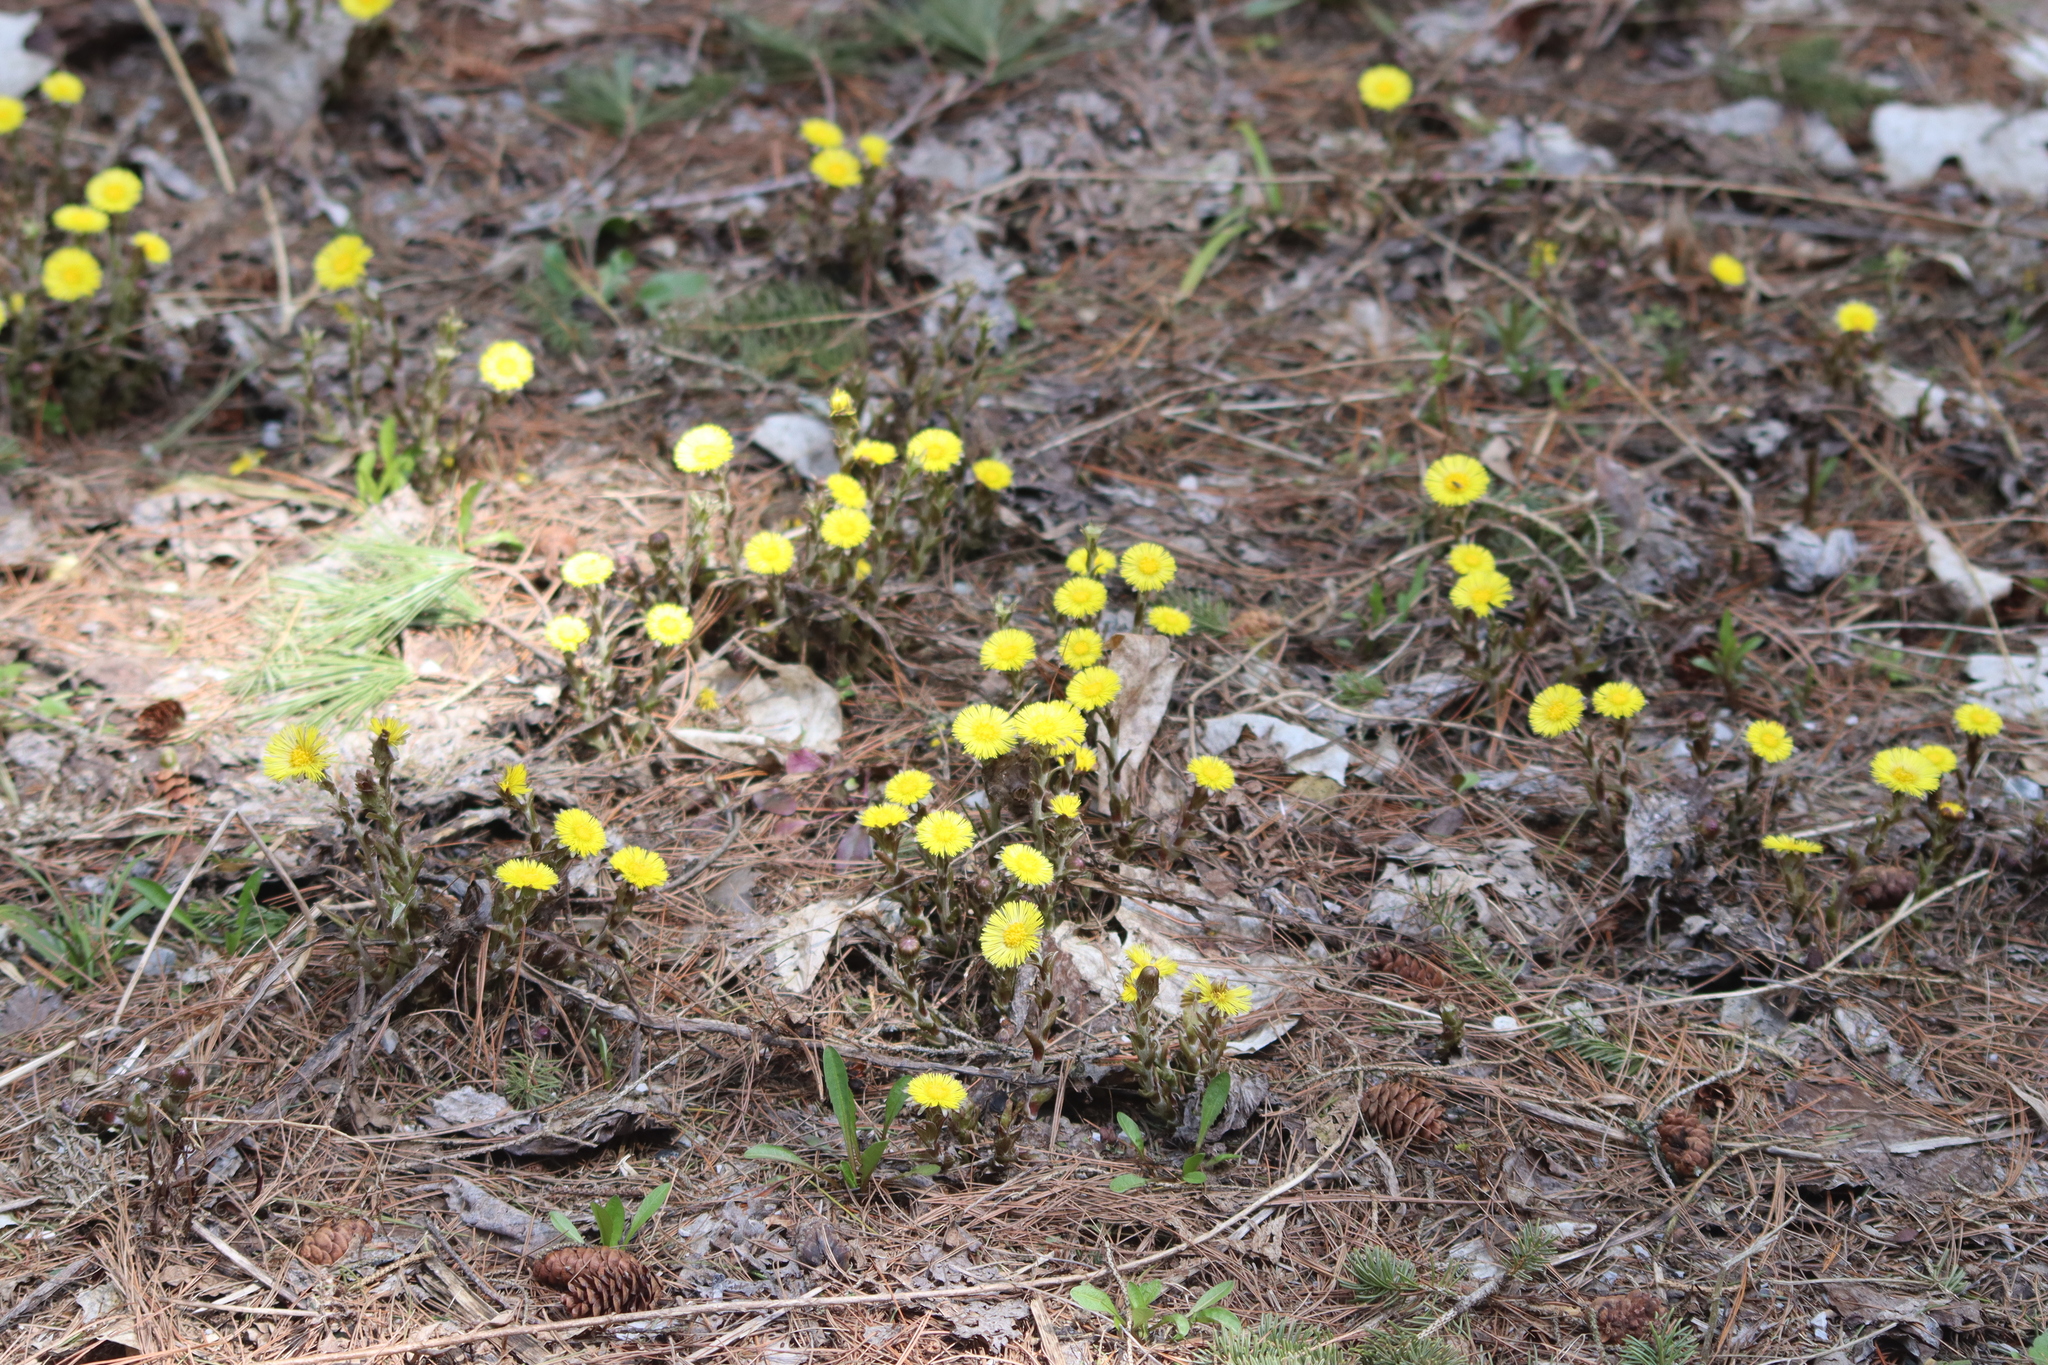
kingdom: Plantae
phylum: Tracheophyta
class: Magnoliopsida
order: Asterales
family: Asteraceae
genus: Tussilago
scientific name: Tussilago farfara
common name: Coltsfoot
